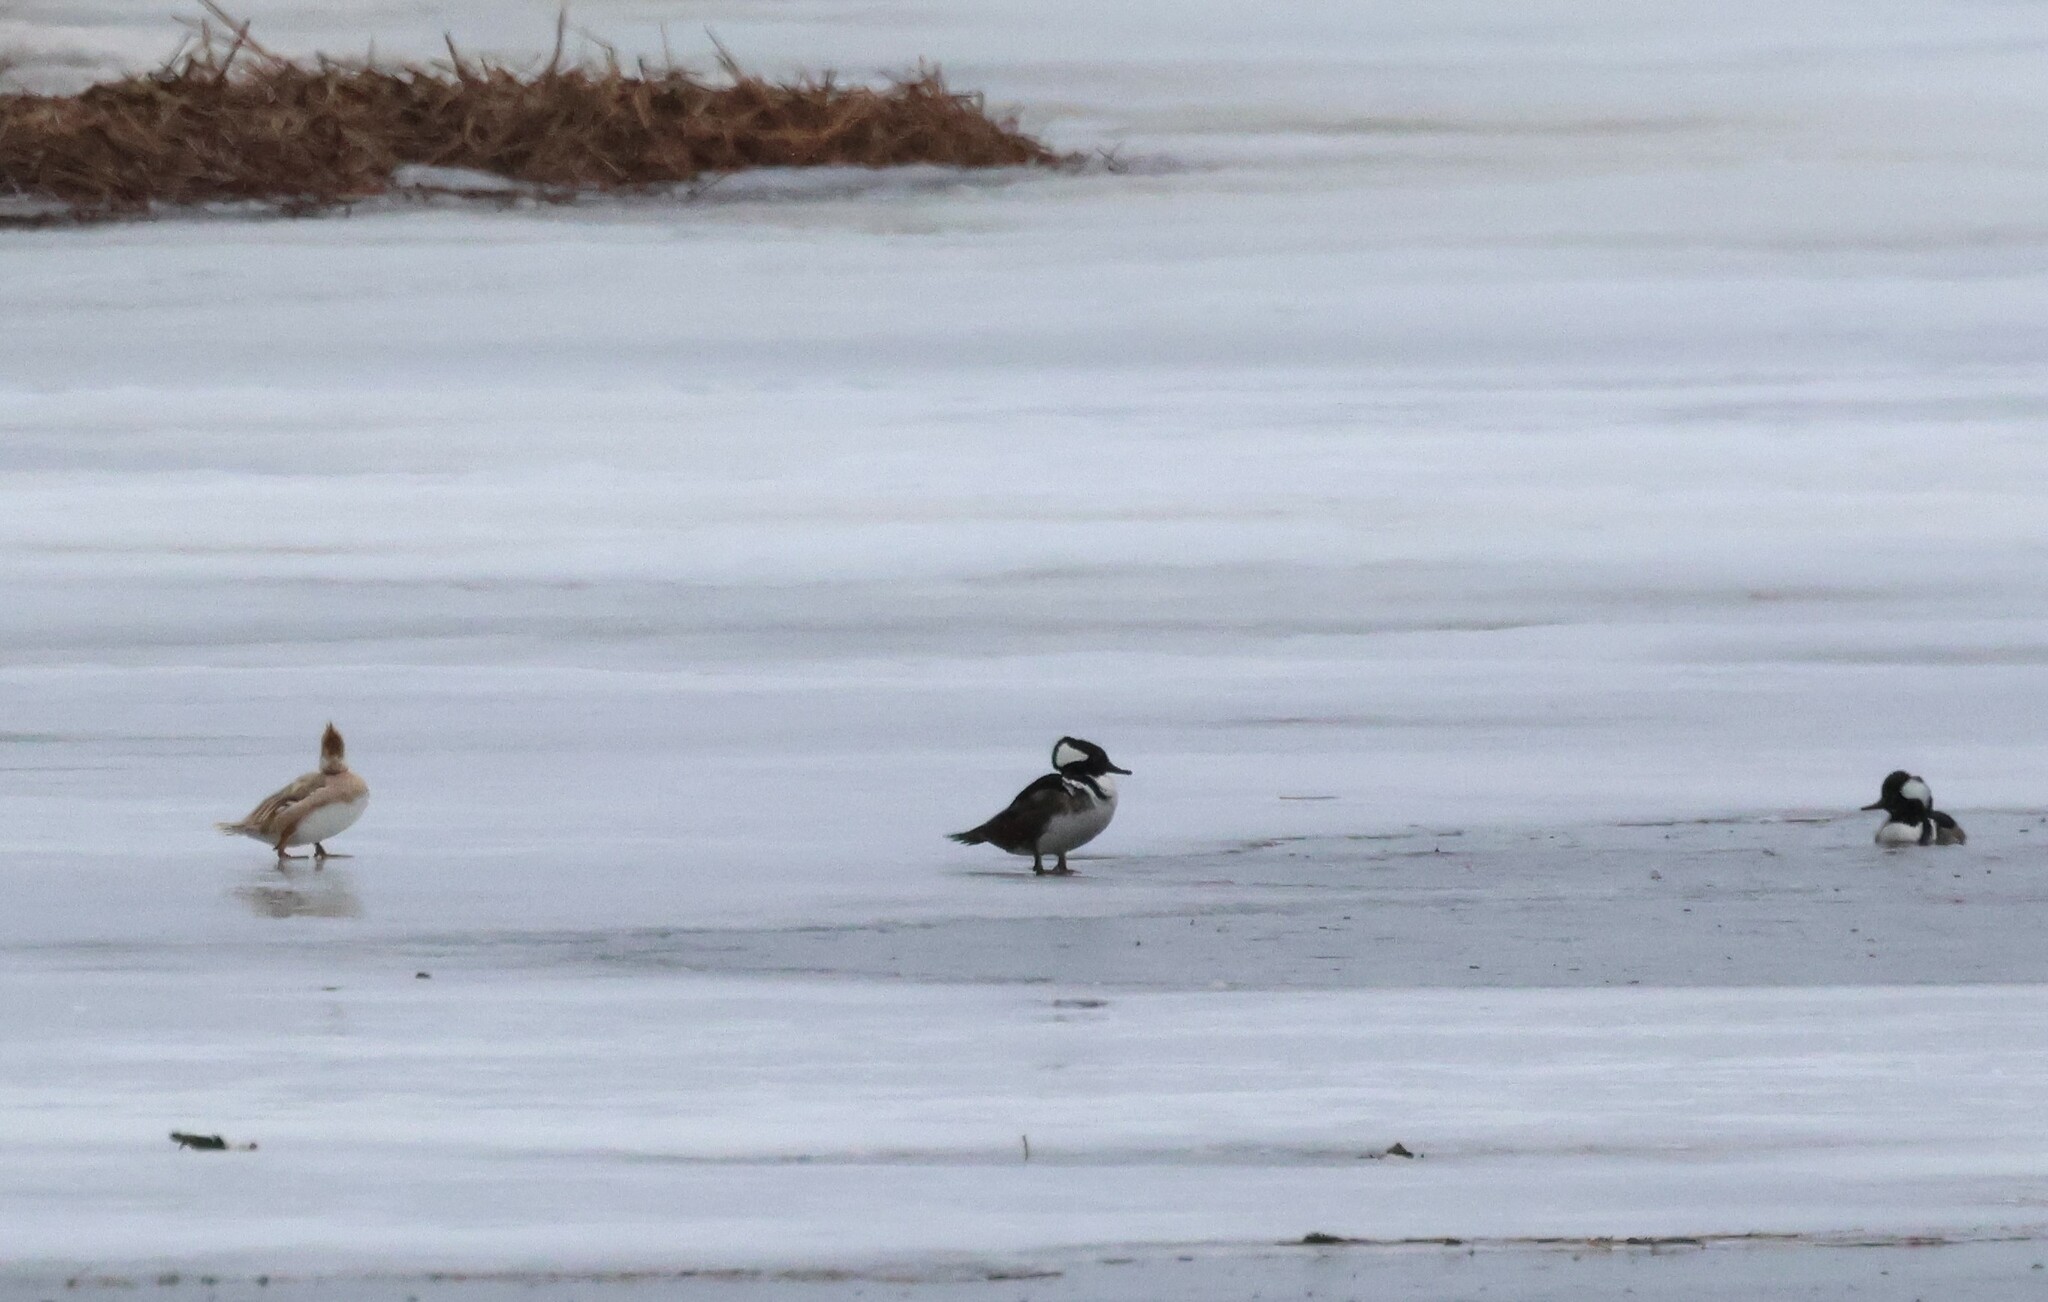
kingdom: Animalia
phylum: Chordata
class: Aves
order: Anseriformes
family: Anatidae
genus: Lophodytes
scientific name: Lophodytes cucullatus
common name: Hooded merganser
